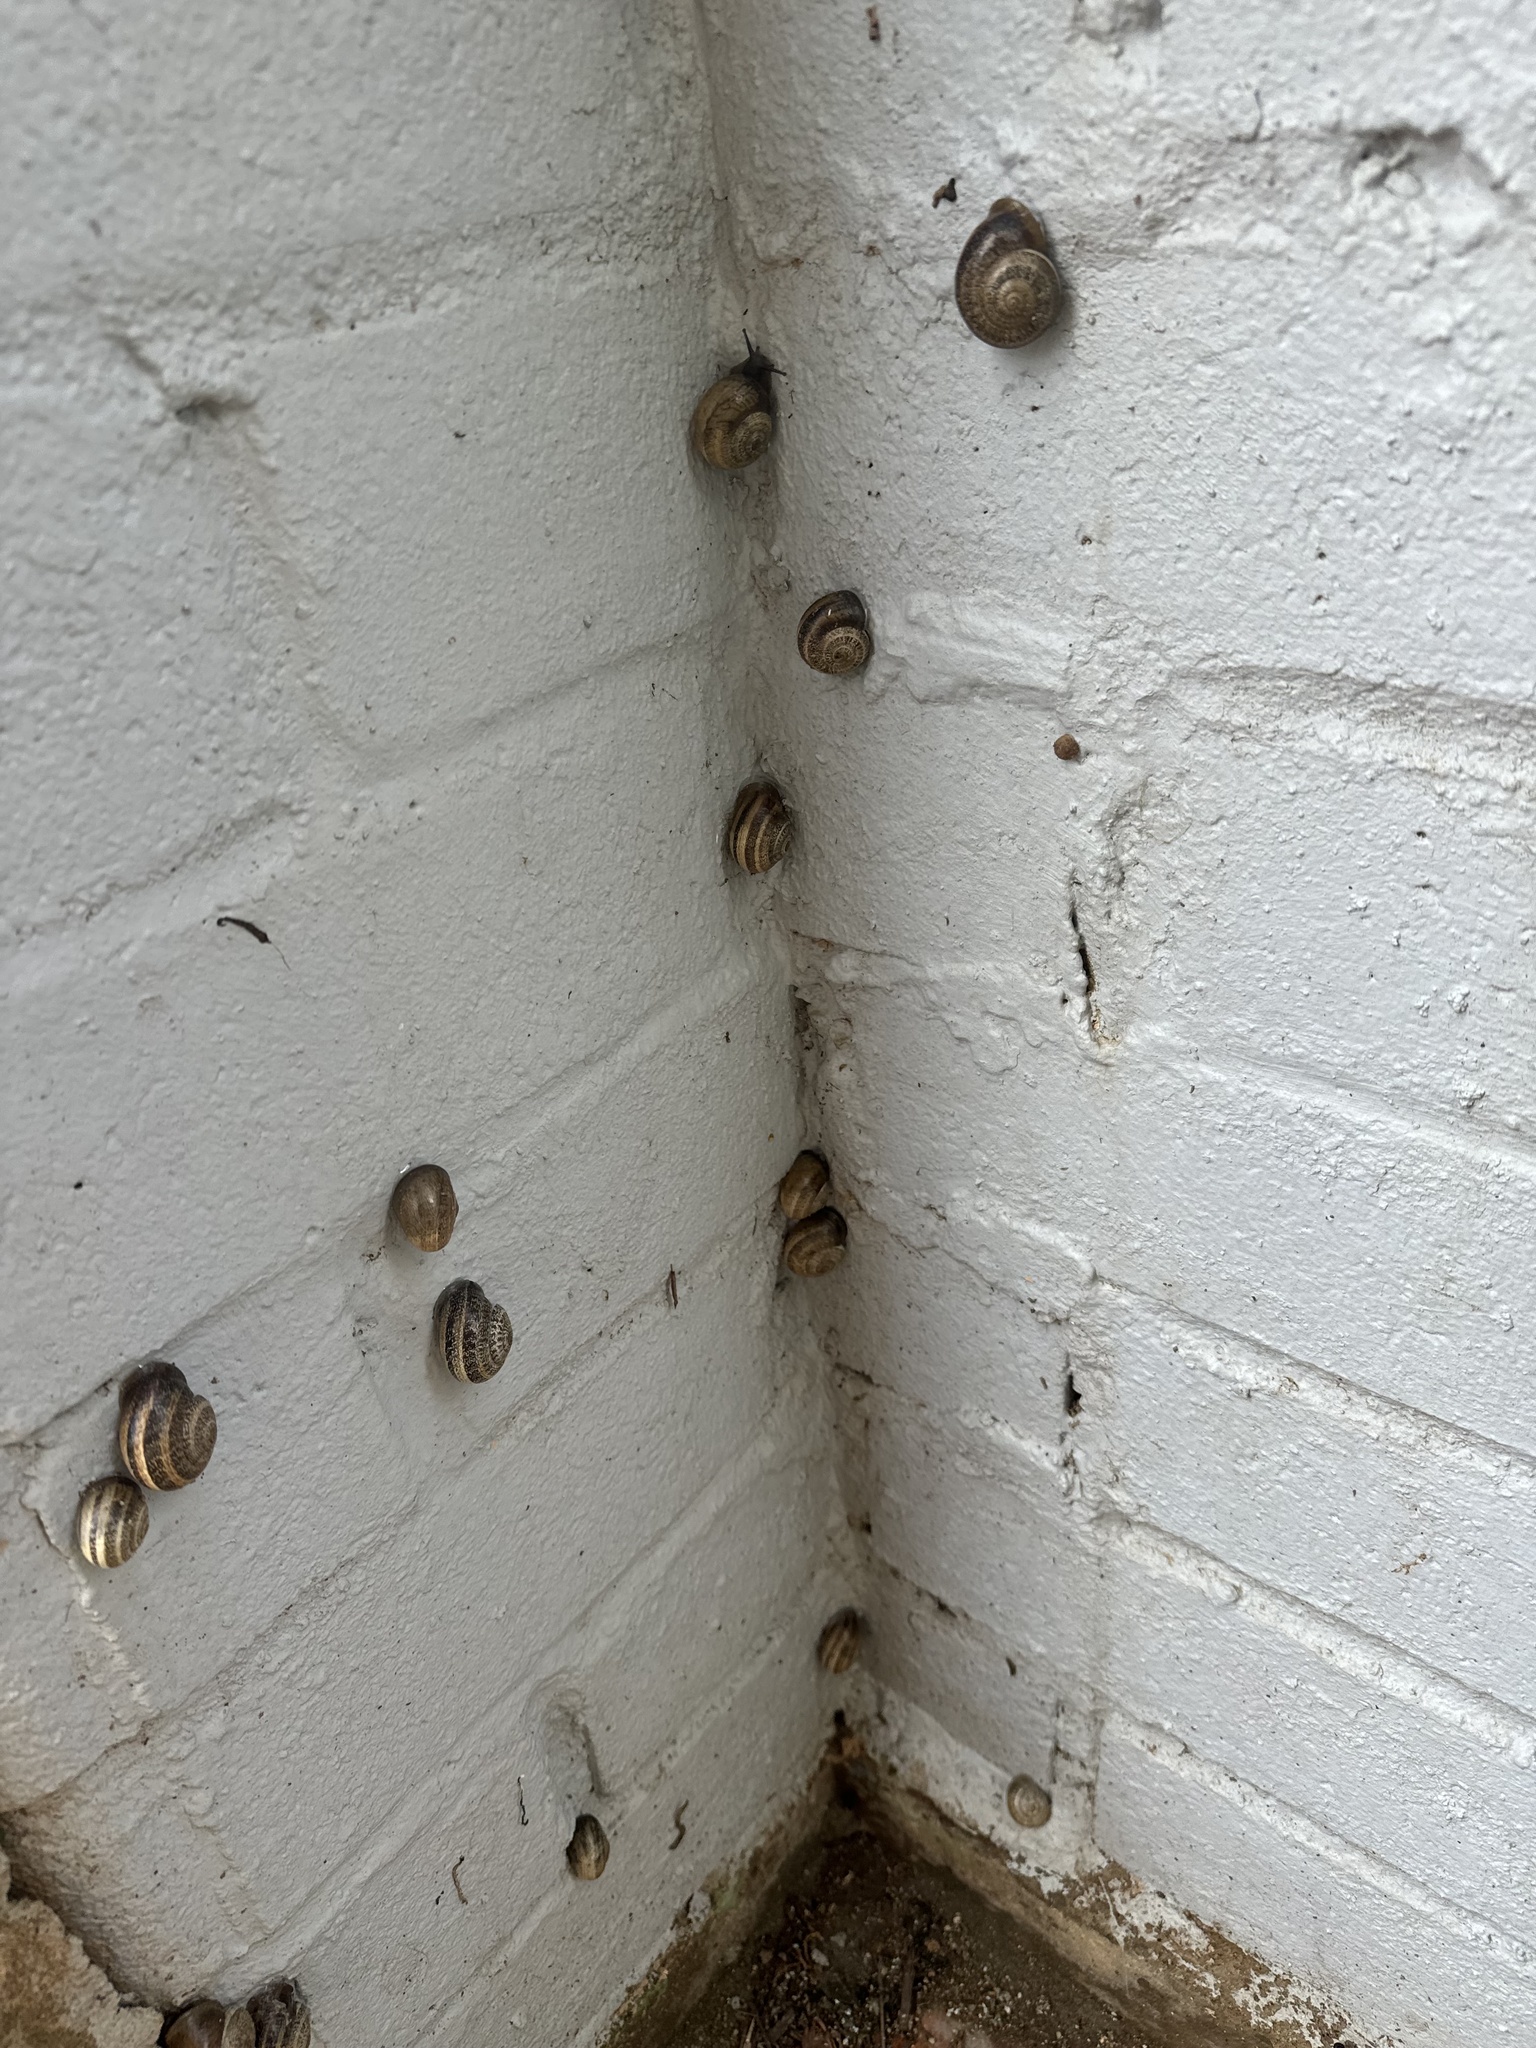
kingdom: Animalia
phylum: Mollusca
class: Gastropoda
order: Stylommatophora
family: Helicidae
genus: Otala
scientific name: Otala lactea
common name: Milk snail
